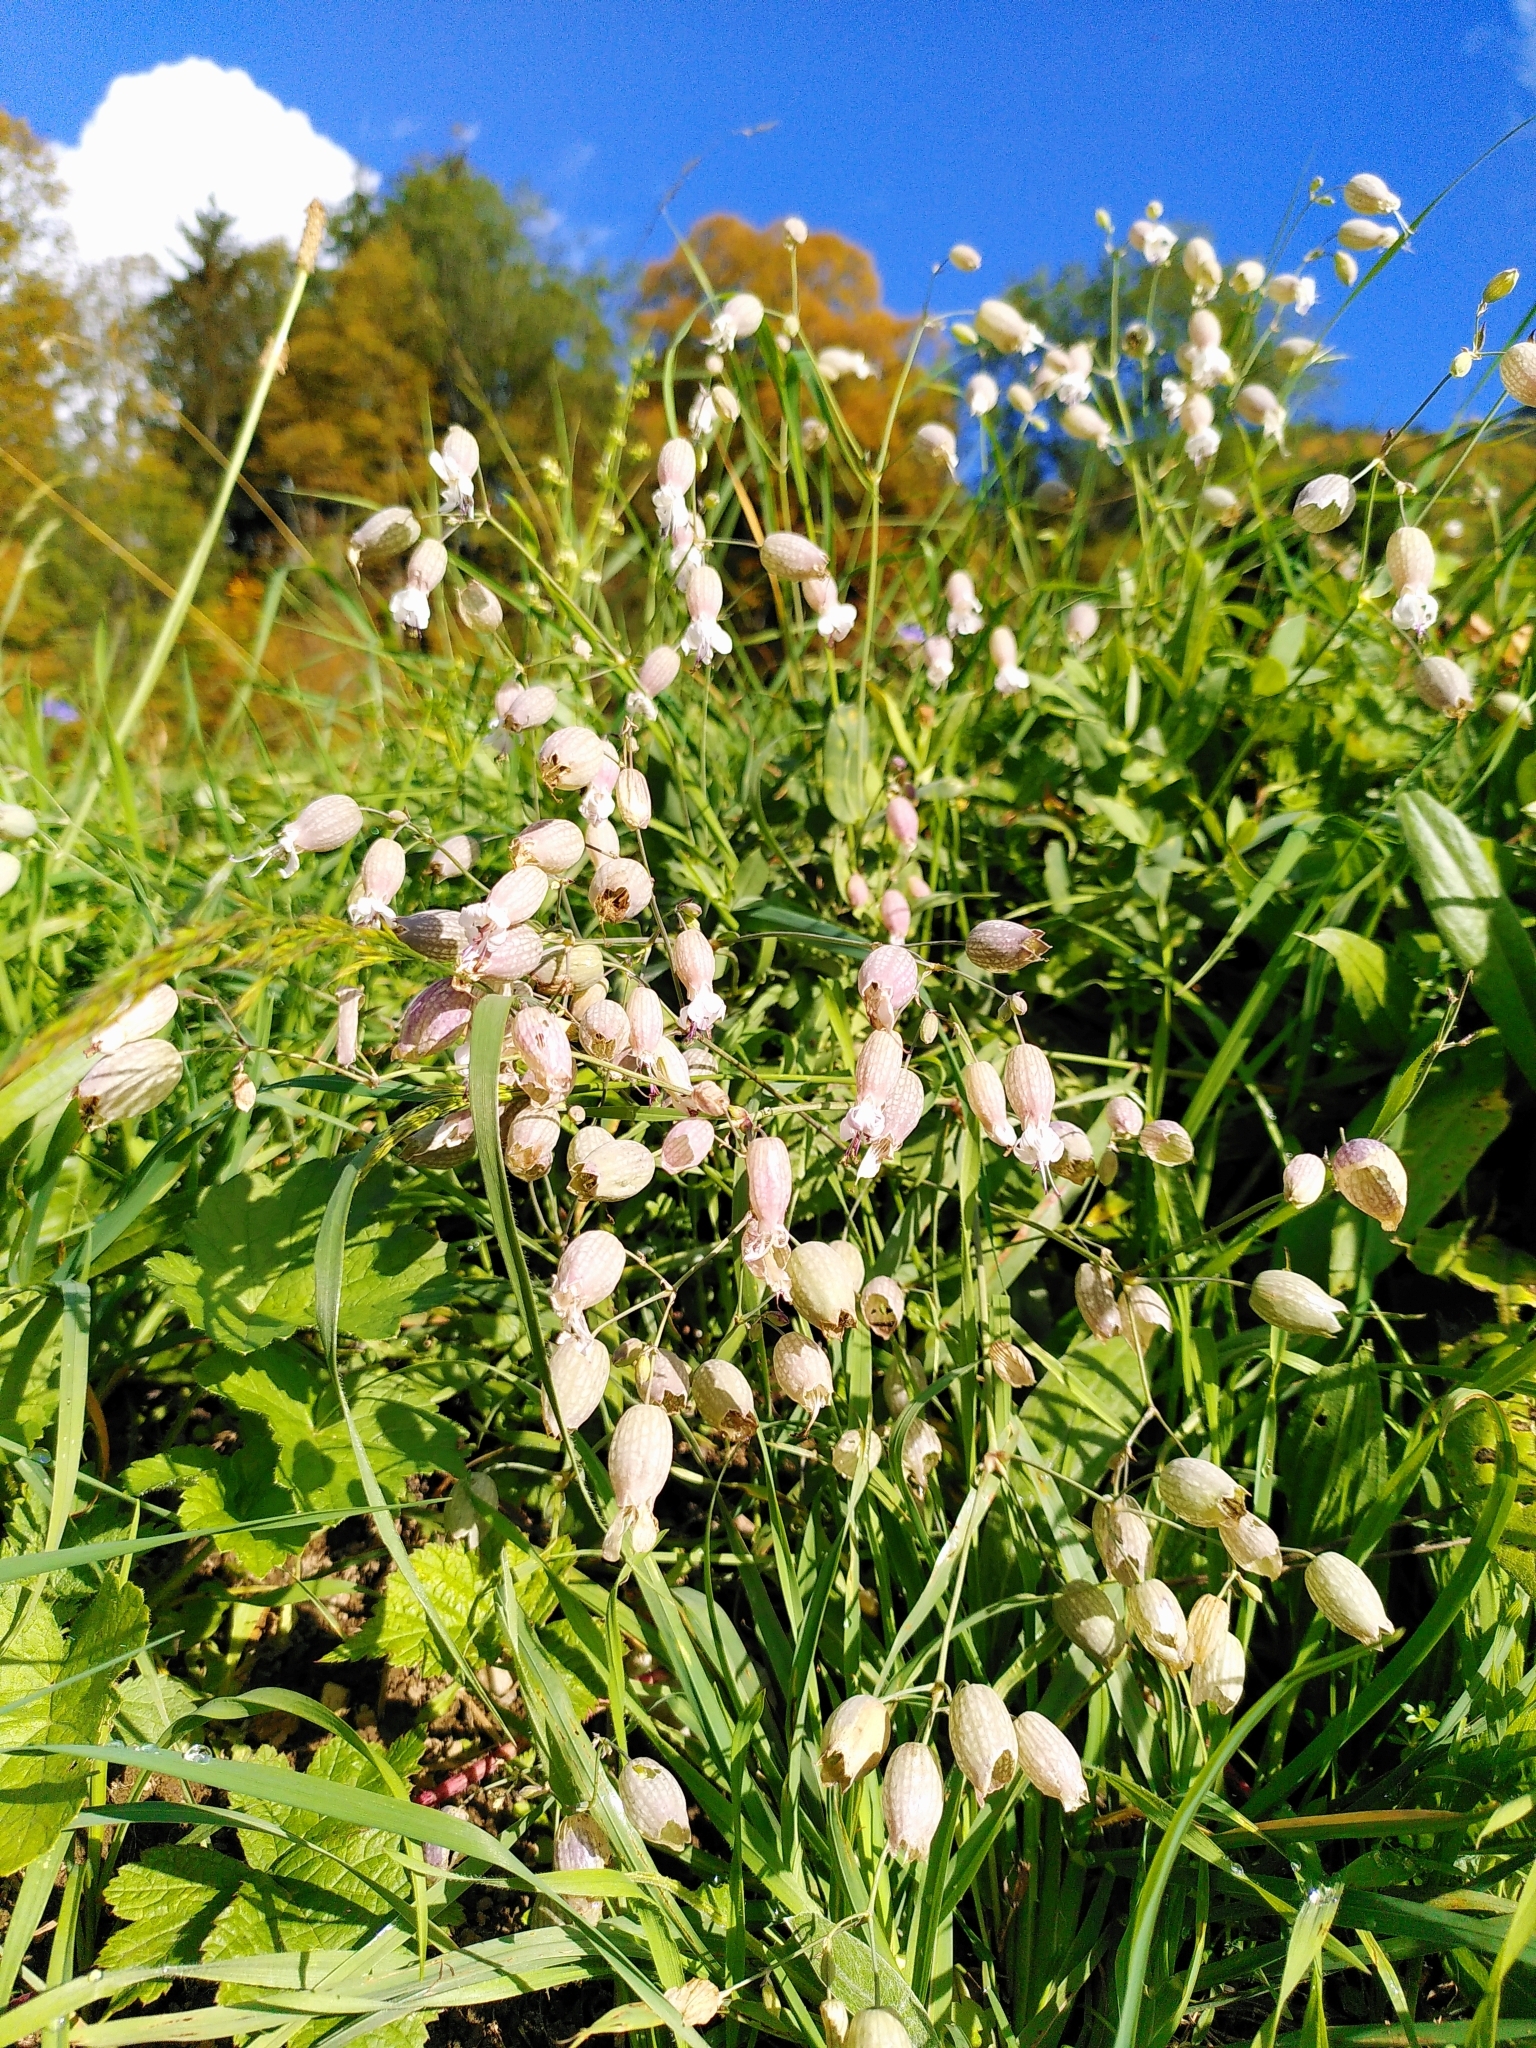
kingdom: Plantae
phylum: Tracheophyta
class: Magnoliopsida
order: Caryophyllales
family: Caryophyllaceae
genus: Silene
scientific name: Silene vulgaris
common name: Bladder campion
